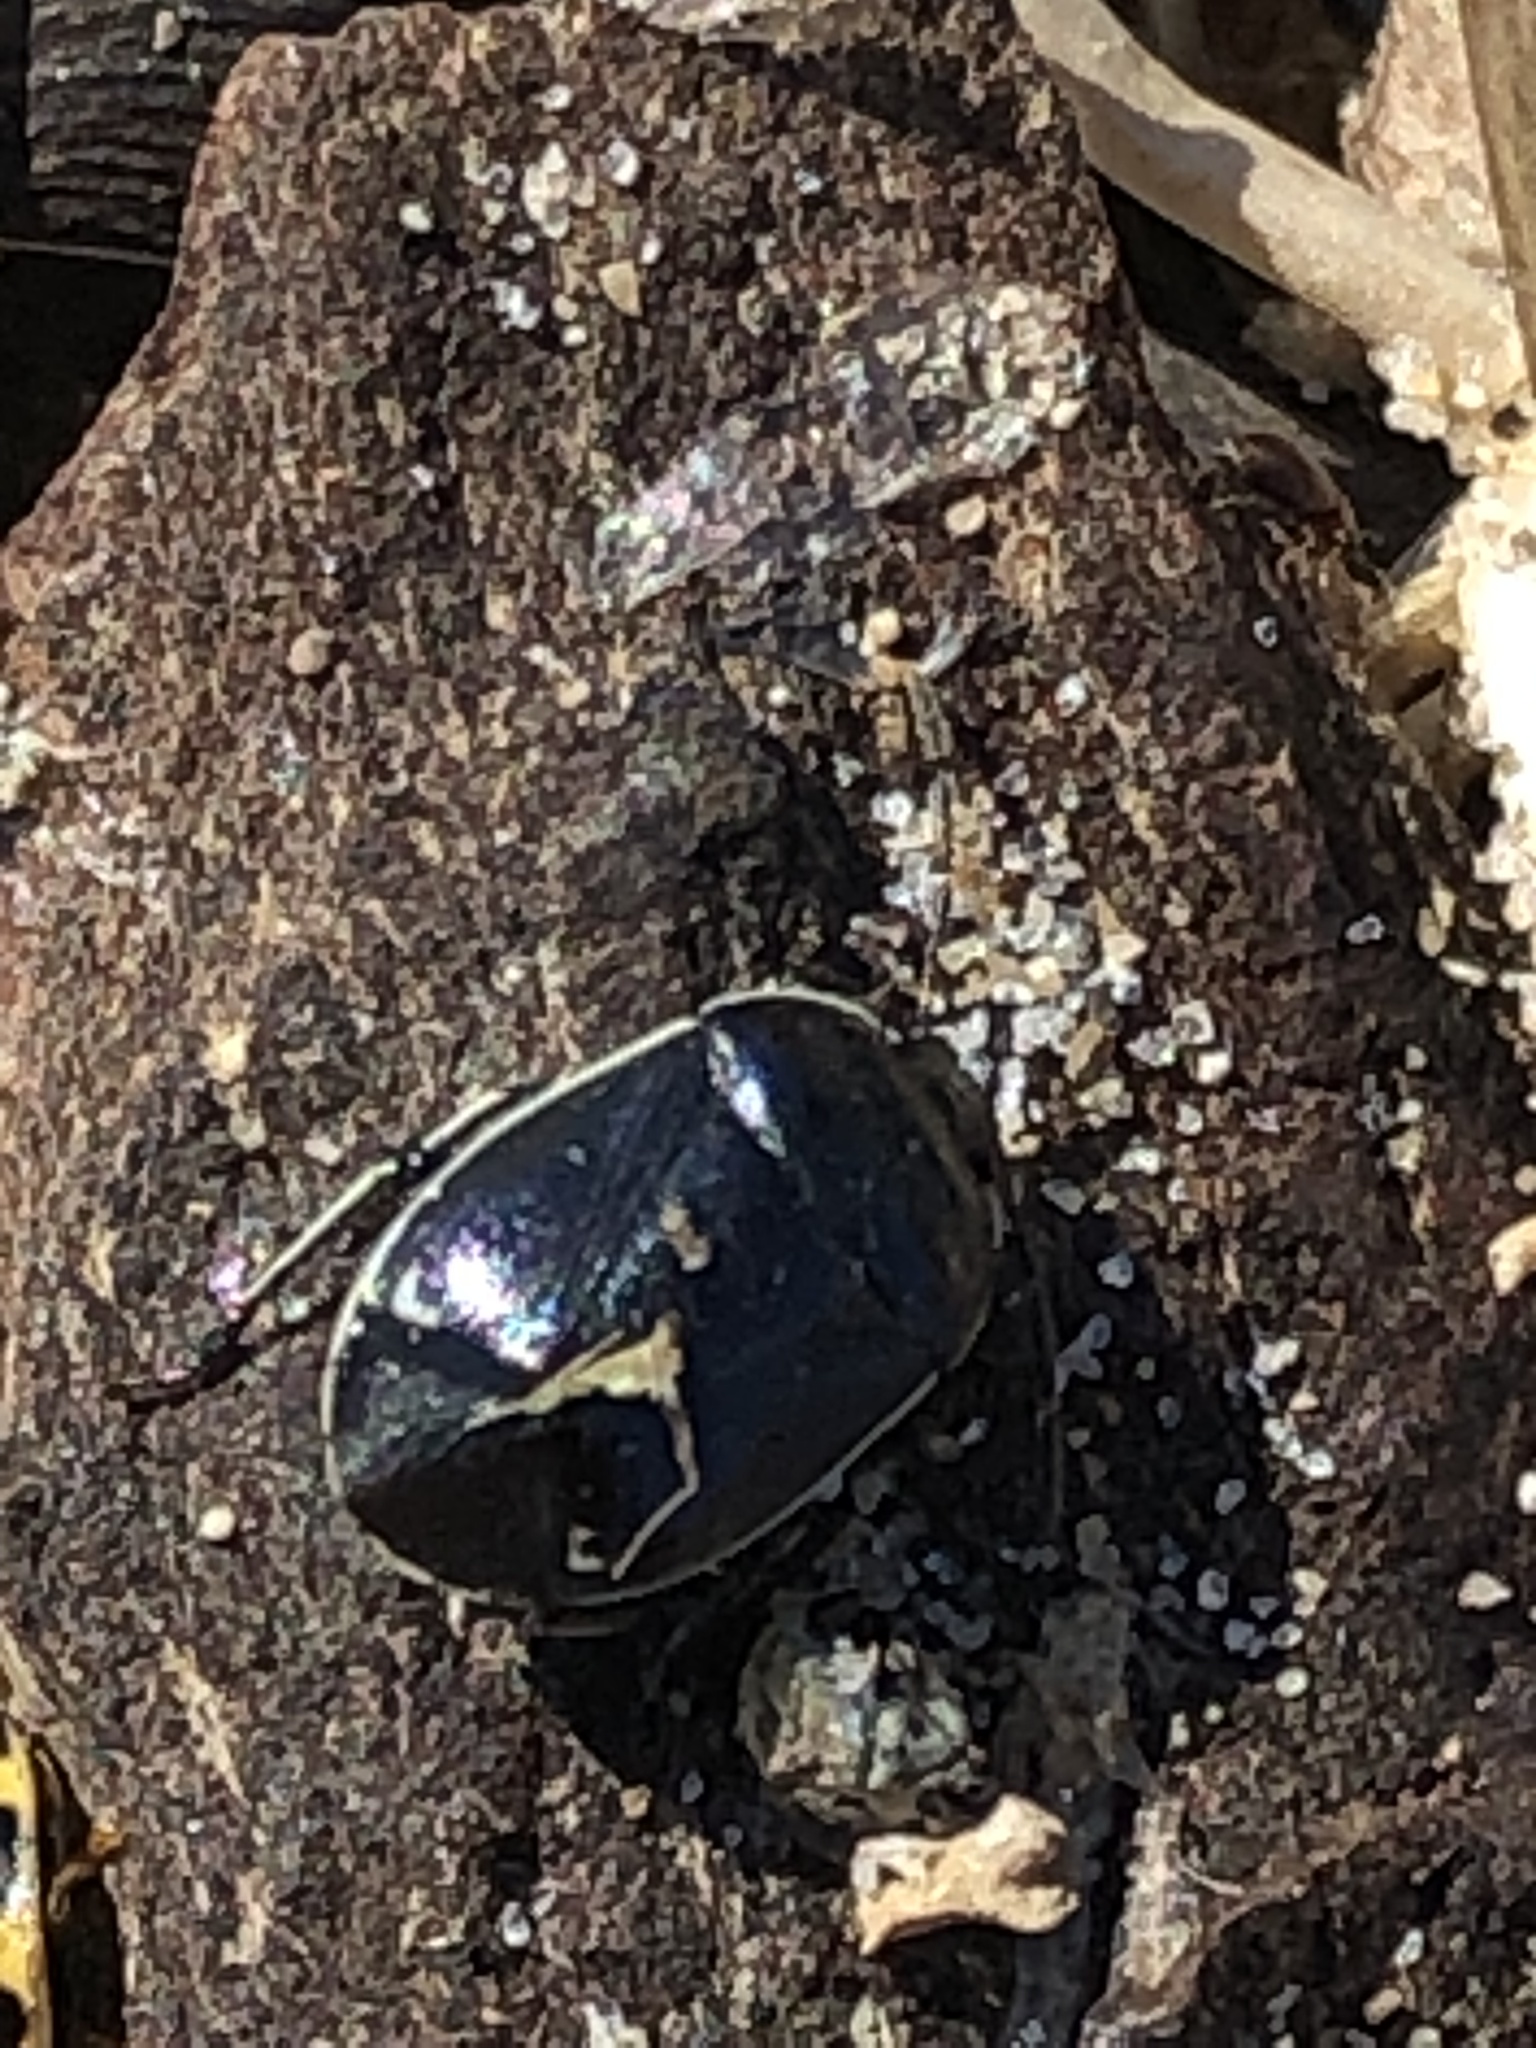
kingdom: Animalia
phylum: Arthropoda
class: Insecta
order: Hemiptera
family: Cydnidae
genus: Sehirus
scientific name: Sehirus cinctus
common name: White-margined burrower bug
